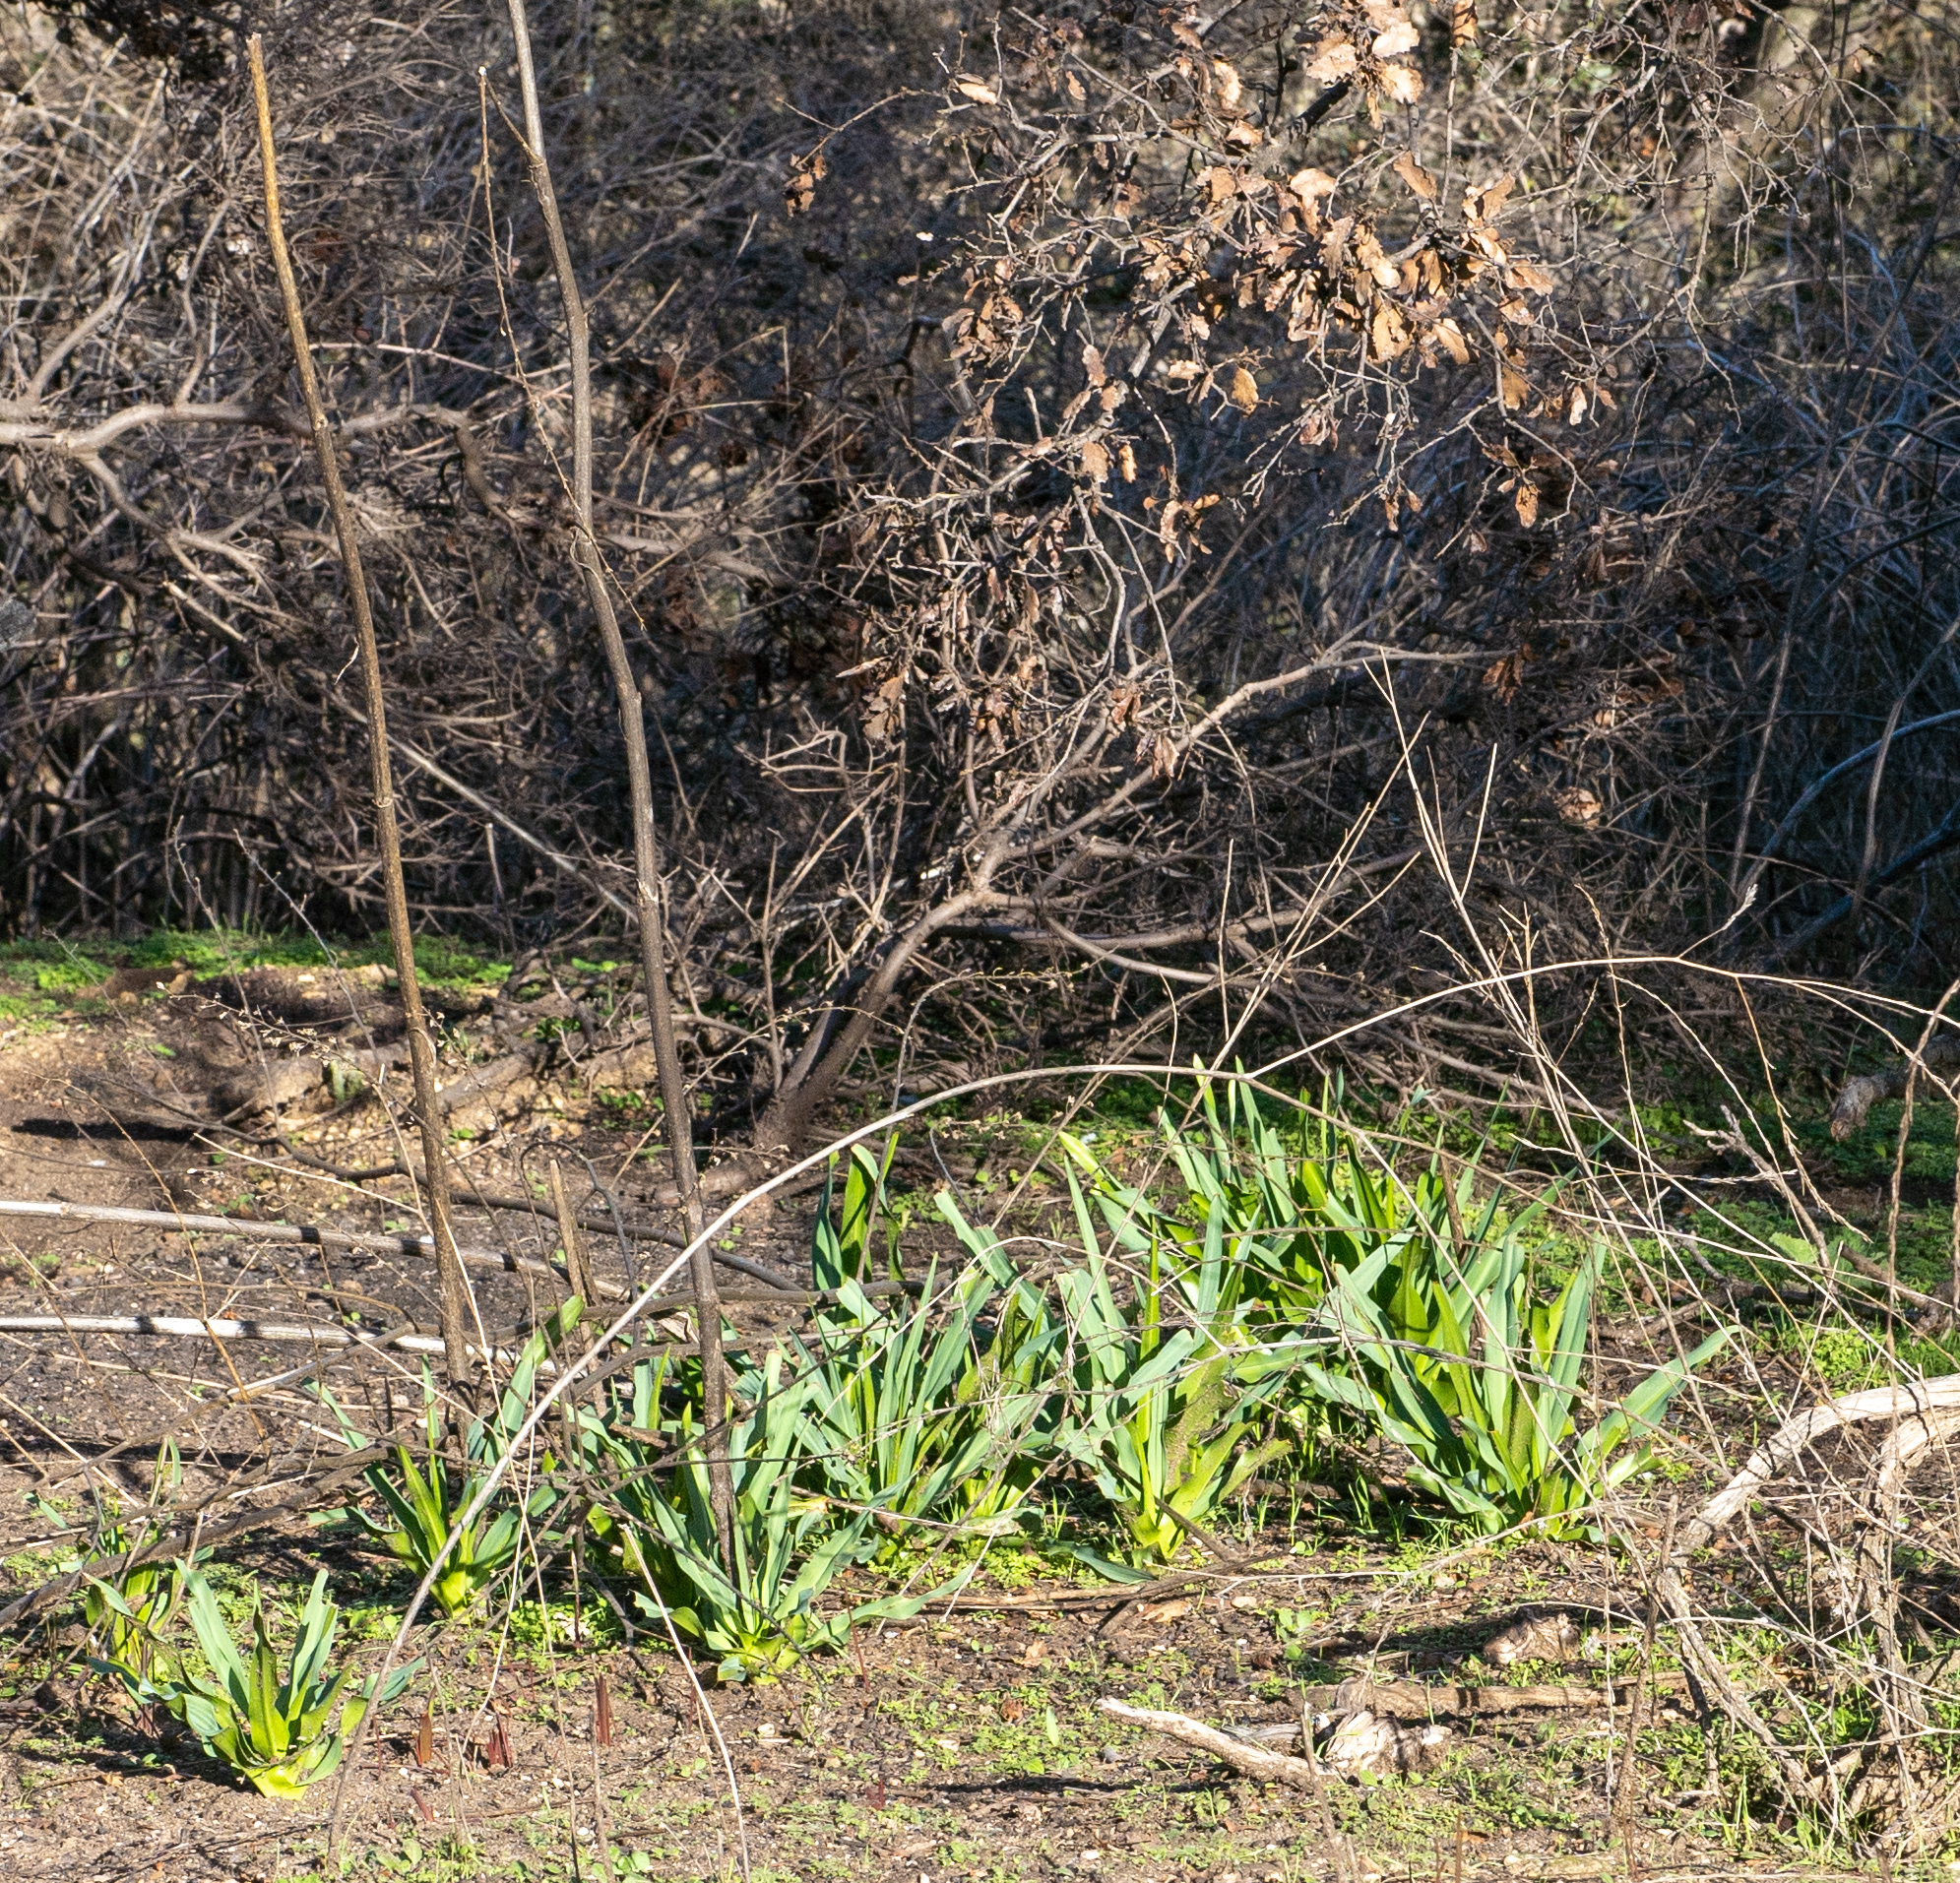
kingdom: Plantae
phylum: Tracheophyta
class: Liliopsida
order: Asparagales
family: Asparagaceae
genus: Chlorogalum
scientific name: Chlorogalum pomeridianum
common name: Amole
